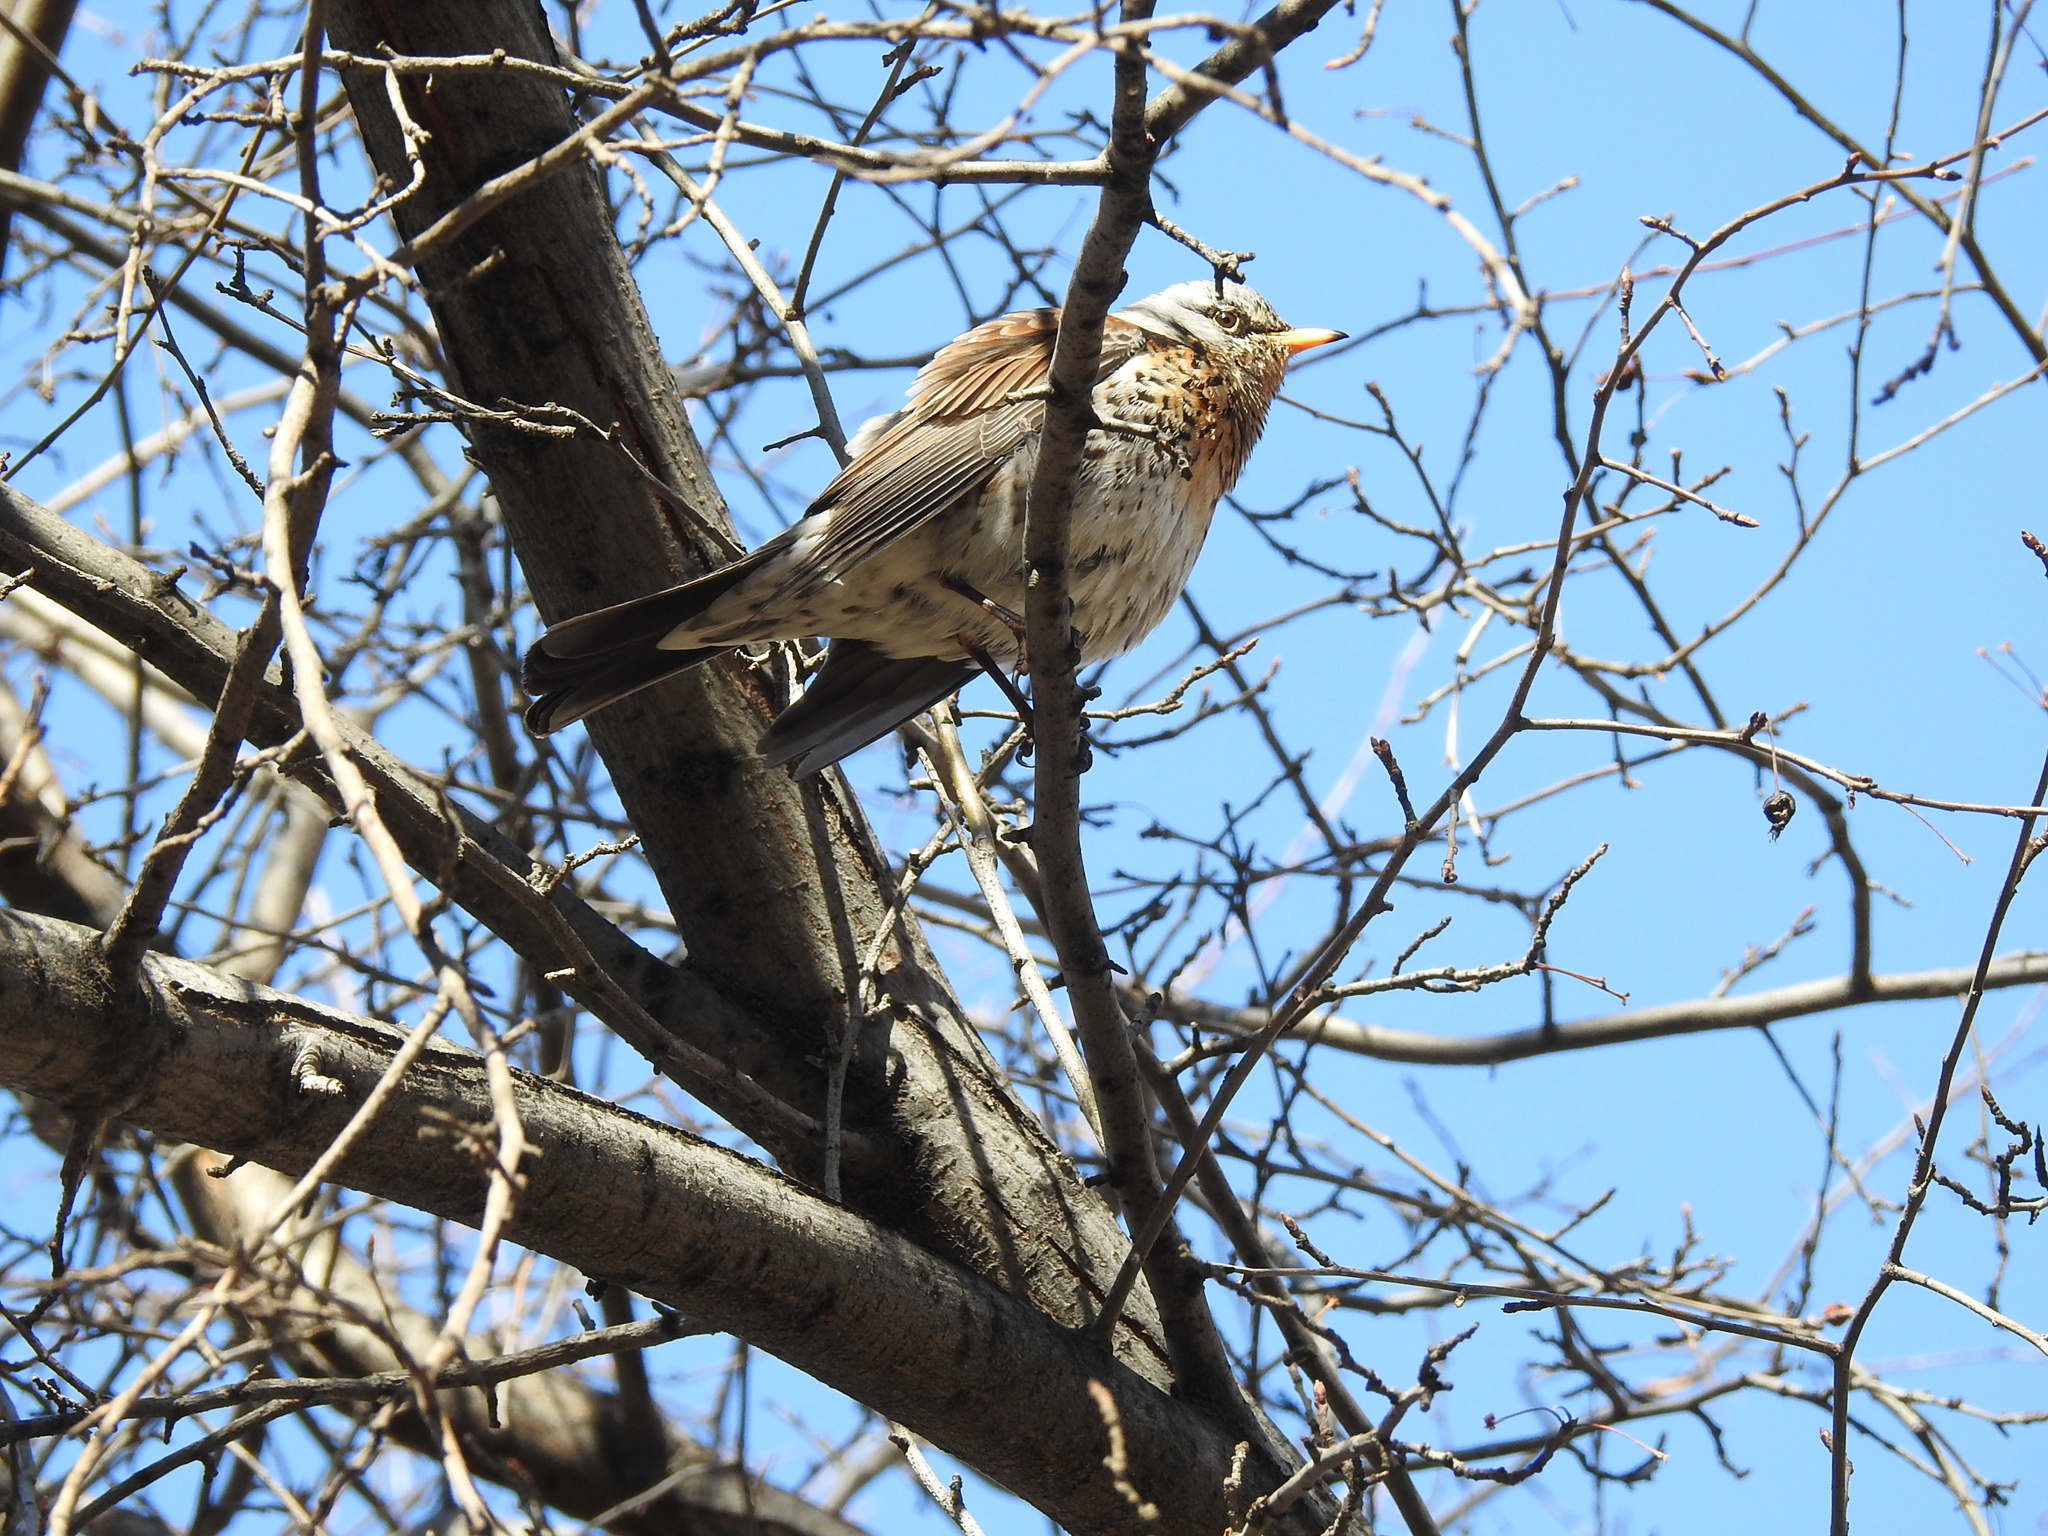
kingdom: Animalia
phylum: Chordata
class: Aves
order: Passeriformes
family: Turdidae
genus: Turdus
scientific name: Turdus pilaris
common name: Fieldfare
